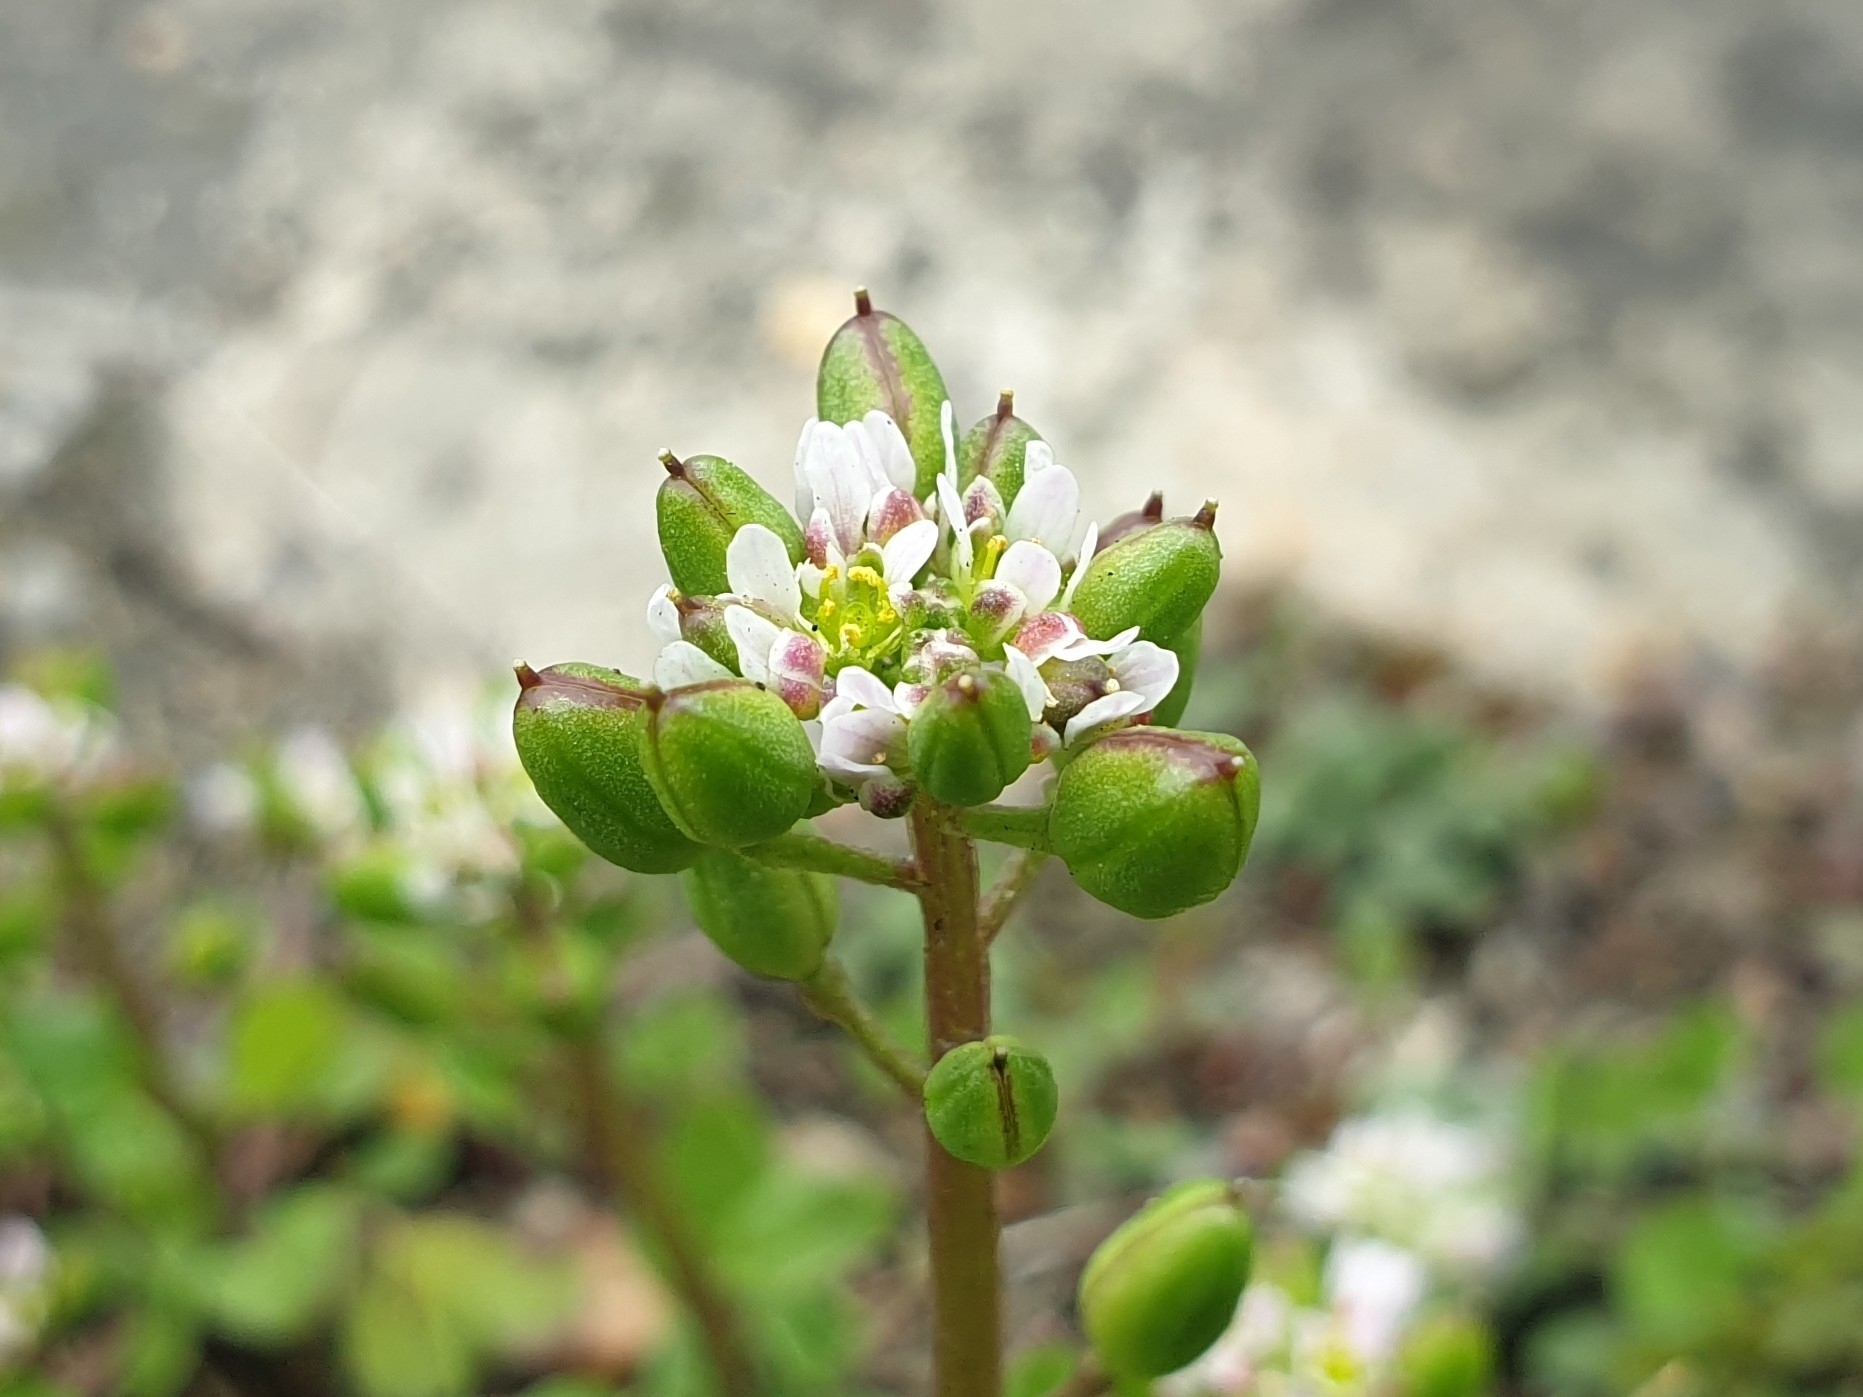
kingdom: Plantae
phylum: Tracheophyta
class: Magnoliopsida
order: Brassicales
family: Brassicaceae
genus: Cochlearia
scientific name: Cochlearia danica
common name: Early scurvygrass
